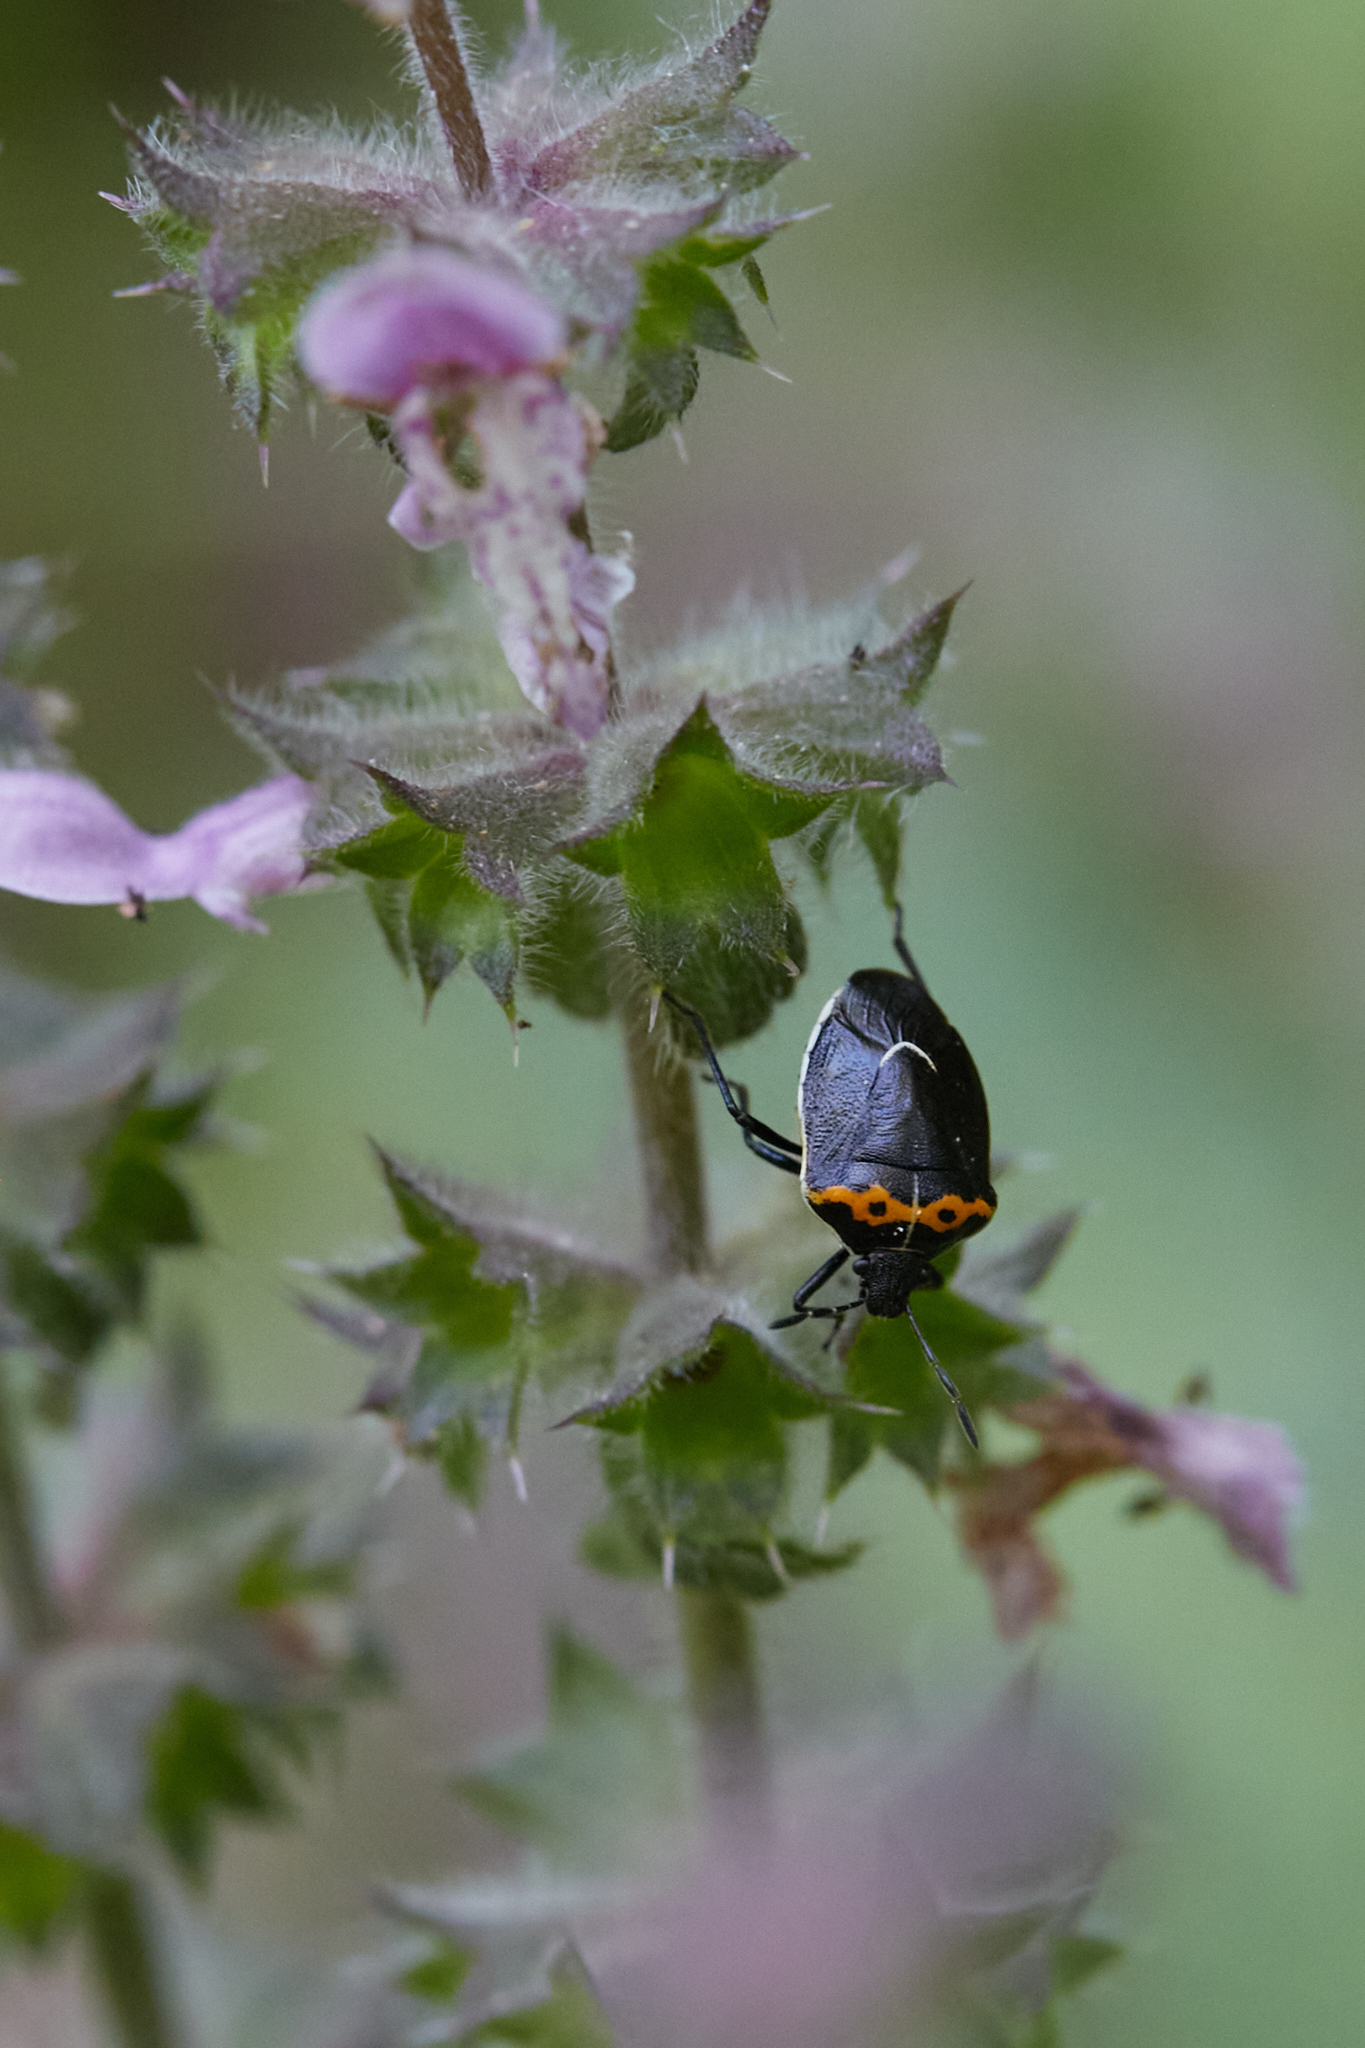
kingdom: Animalia
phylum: Arthropoda
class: Insecta
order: Hemiptera
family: Pentatomidae
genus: Cosmopepla
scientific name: Cosmopepla conspicillaris
